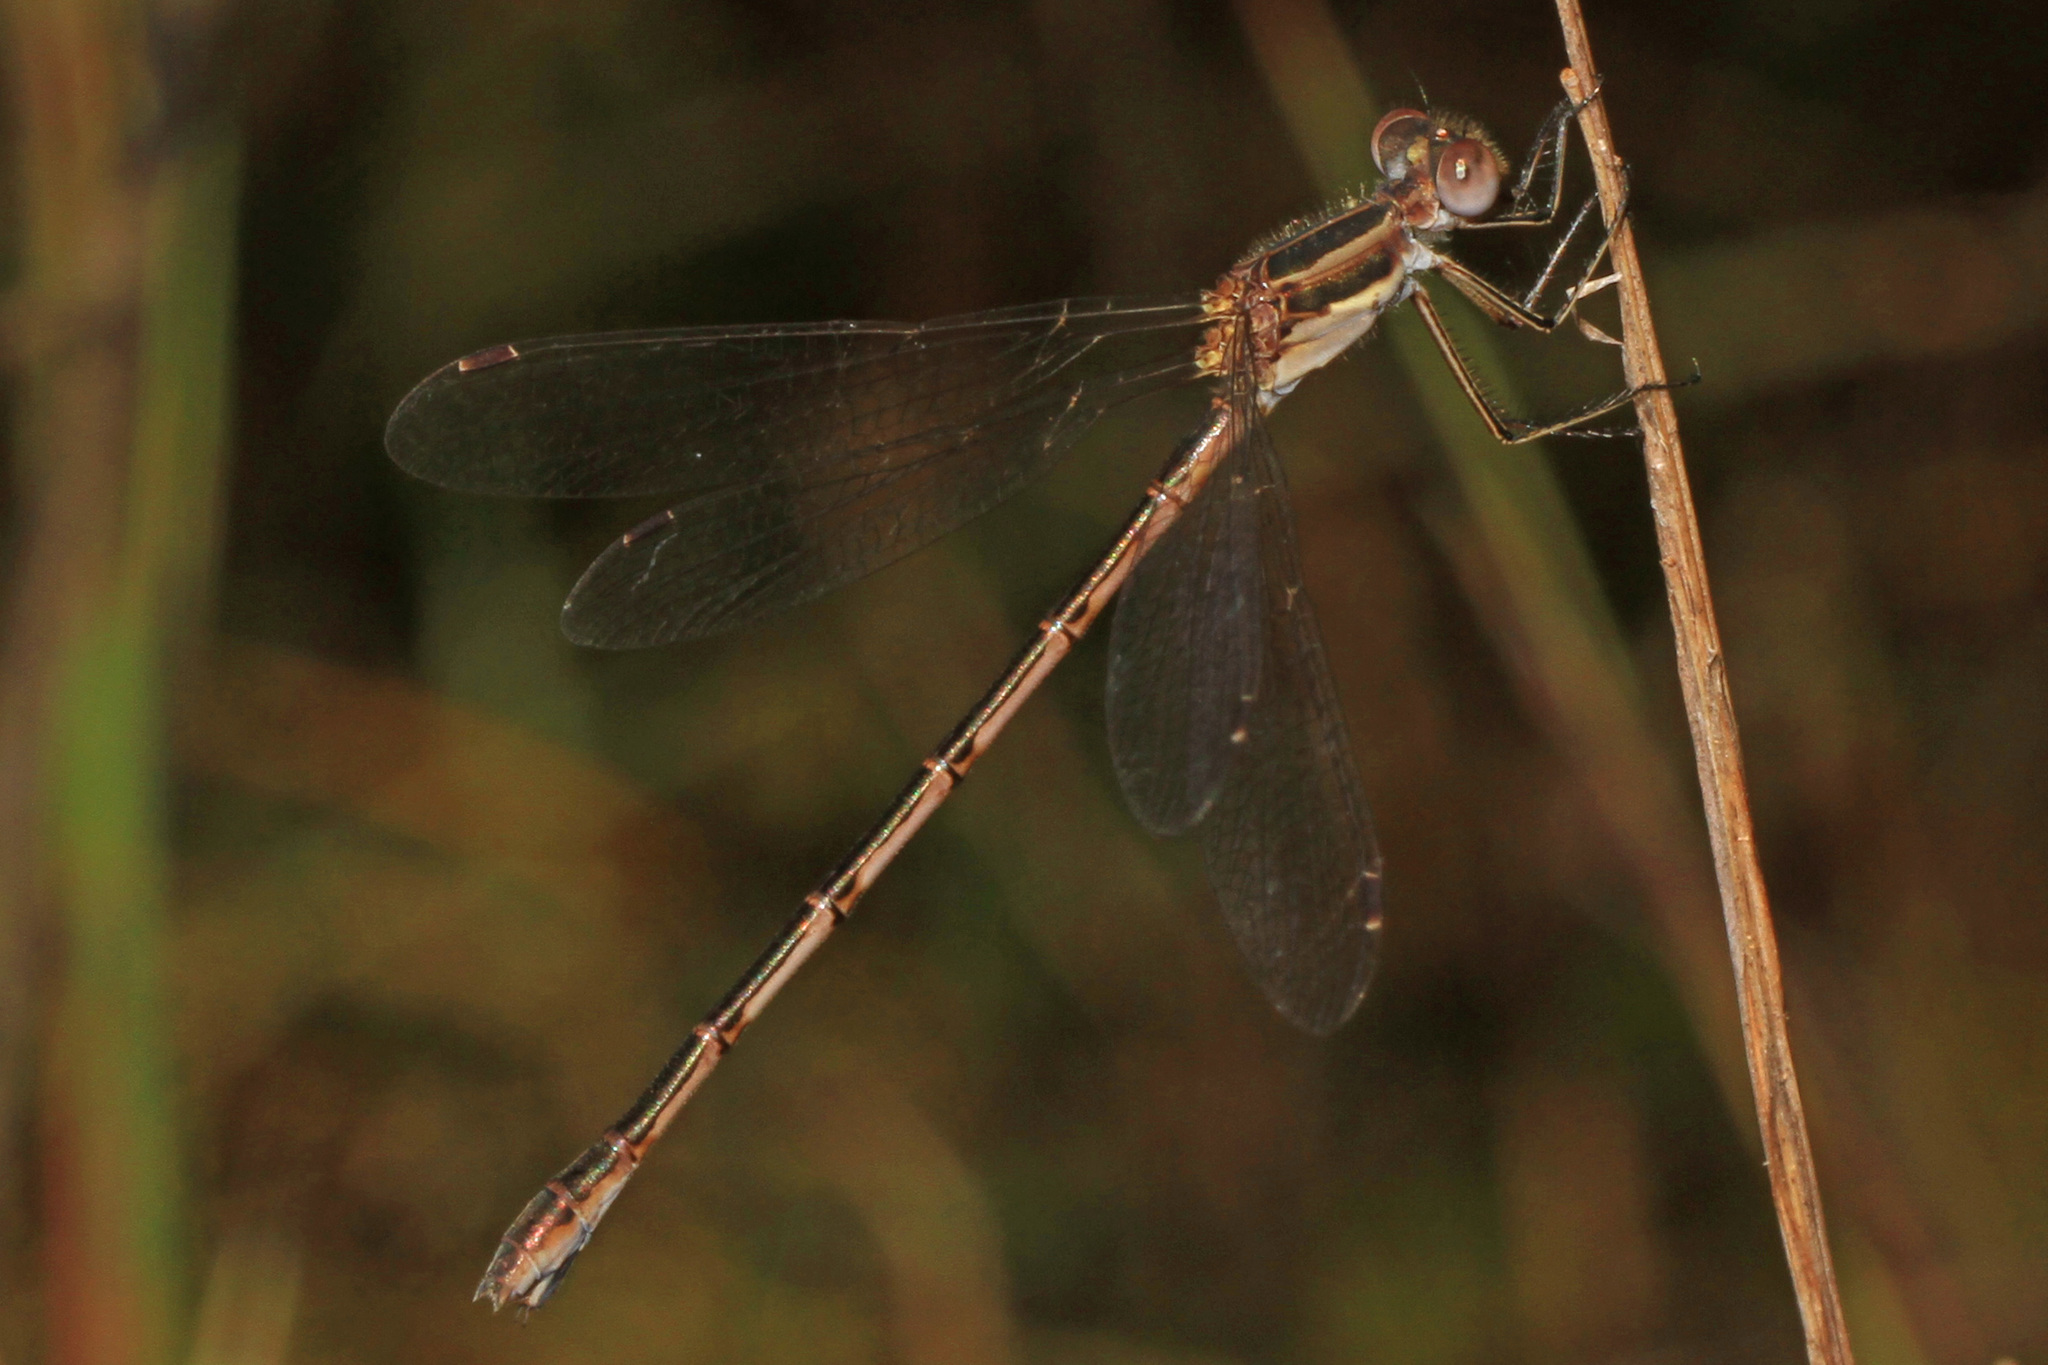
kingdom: Animalia
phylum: Arthropoda
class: Insecta
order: Odonata
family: Lestidae
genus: Lestes
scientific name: Lestes australis
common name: Southern spreadwing
